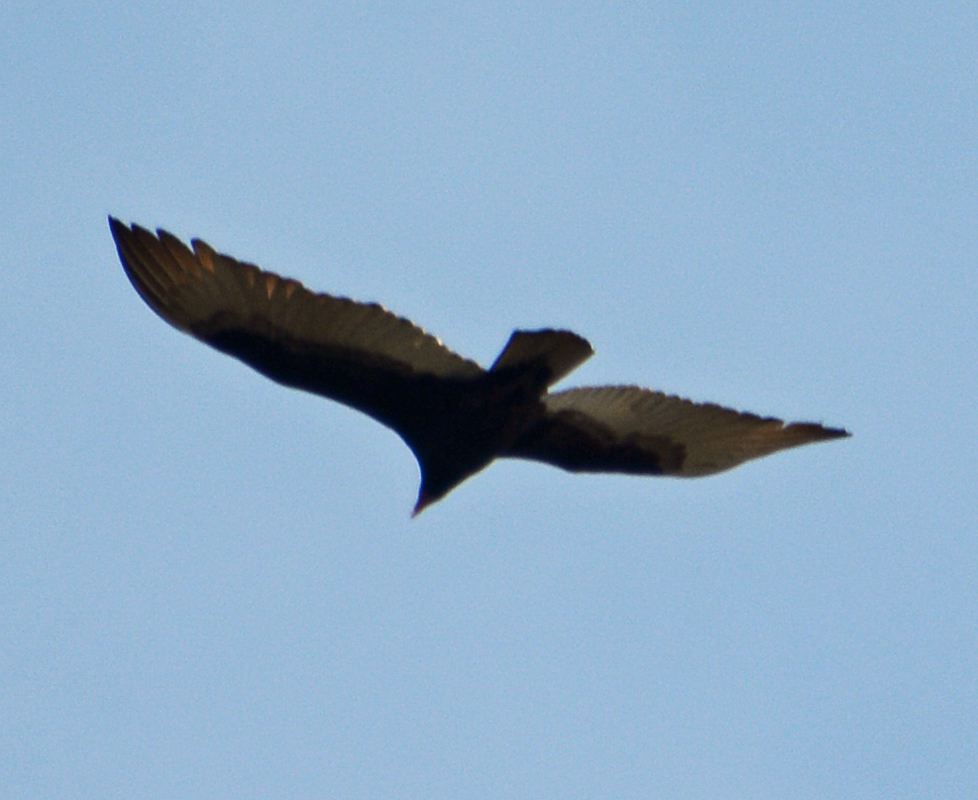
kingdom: Animalia
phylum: Chordata
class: Aves
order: Accipitriformes
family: Cathartidae
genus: Cathartes
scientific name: Cathartes aura
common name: Turkey vulture
